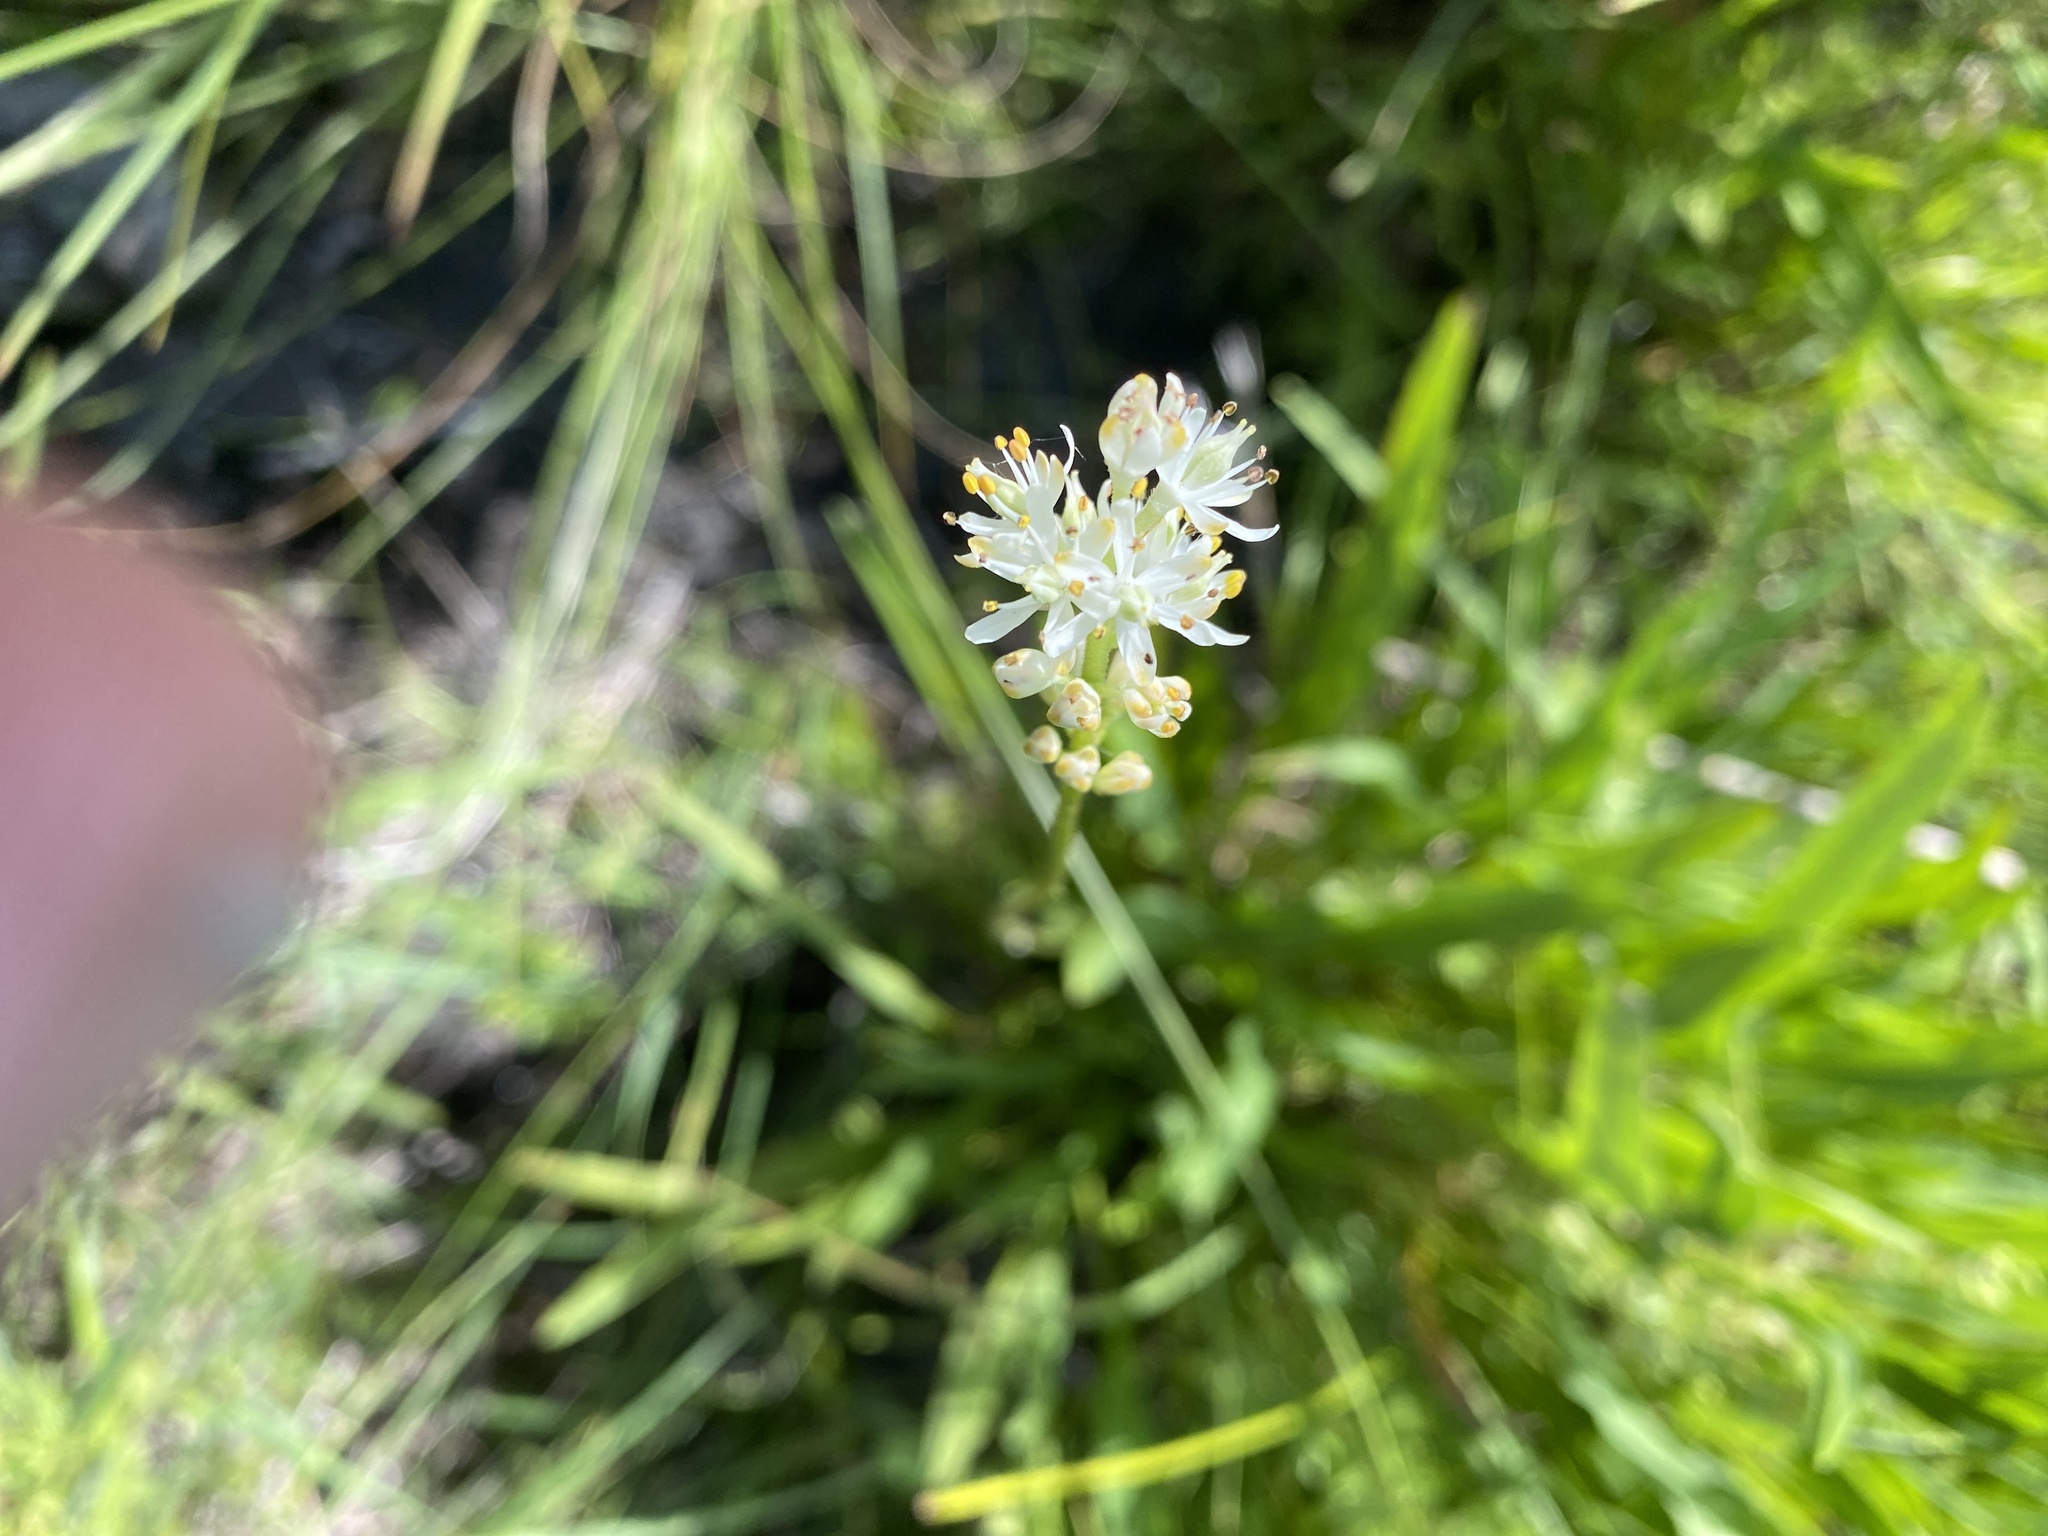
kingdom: Plantae
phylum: Tracheophyta
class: Liliopsida
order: Alismatales
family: Tofieldiaceae
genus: Triantha
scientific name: Triantha glutinosa
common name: Glutinous tofieldia
